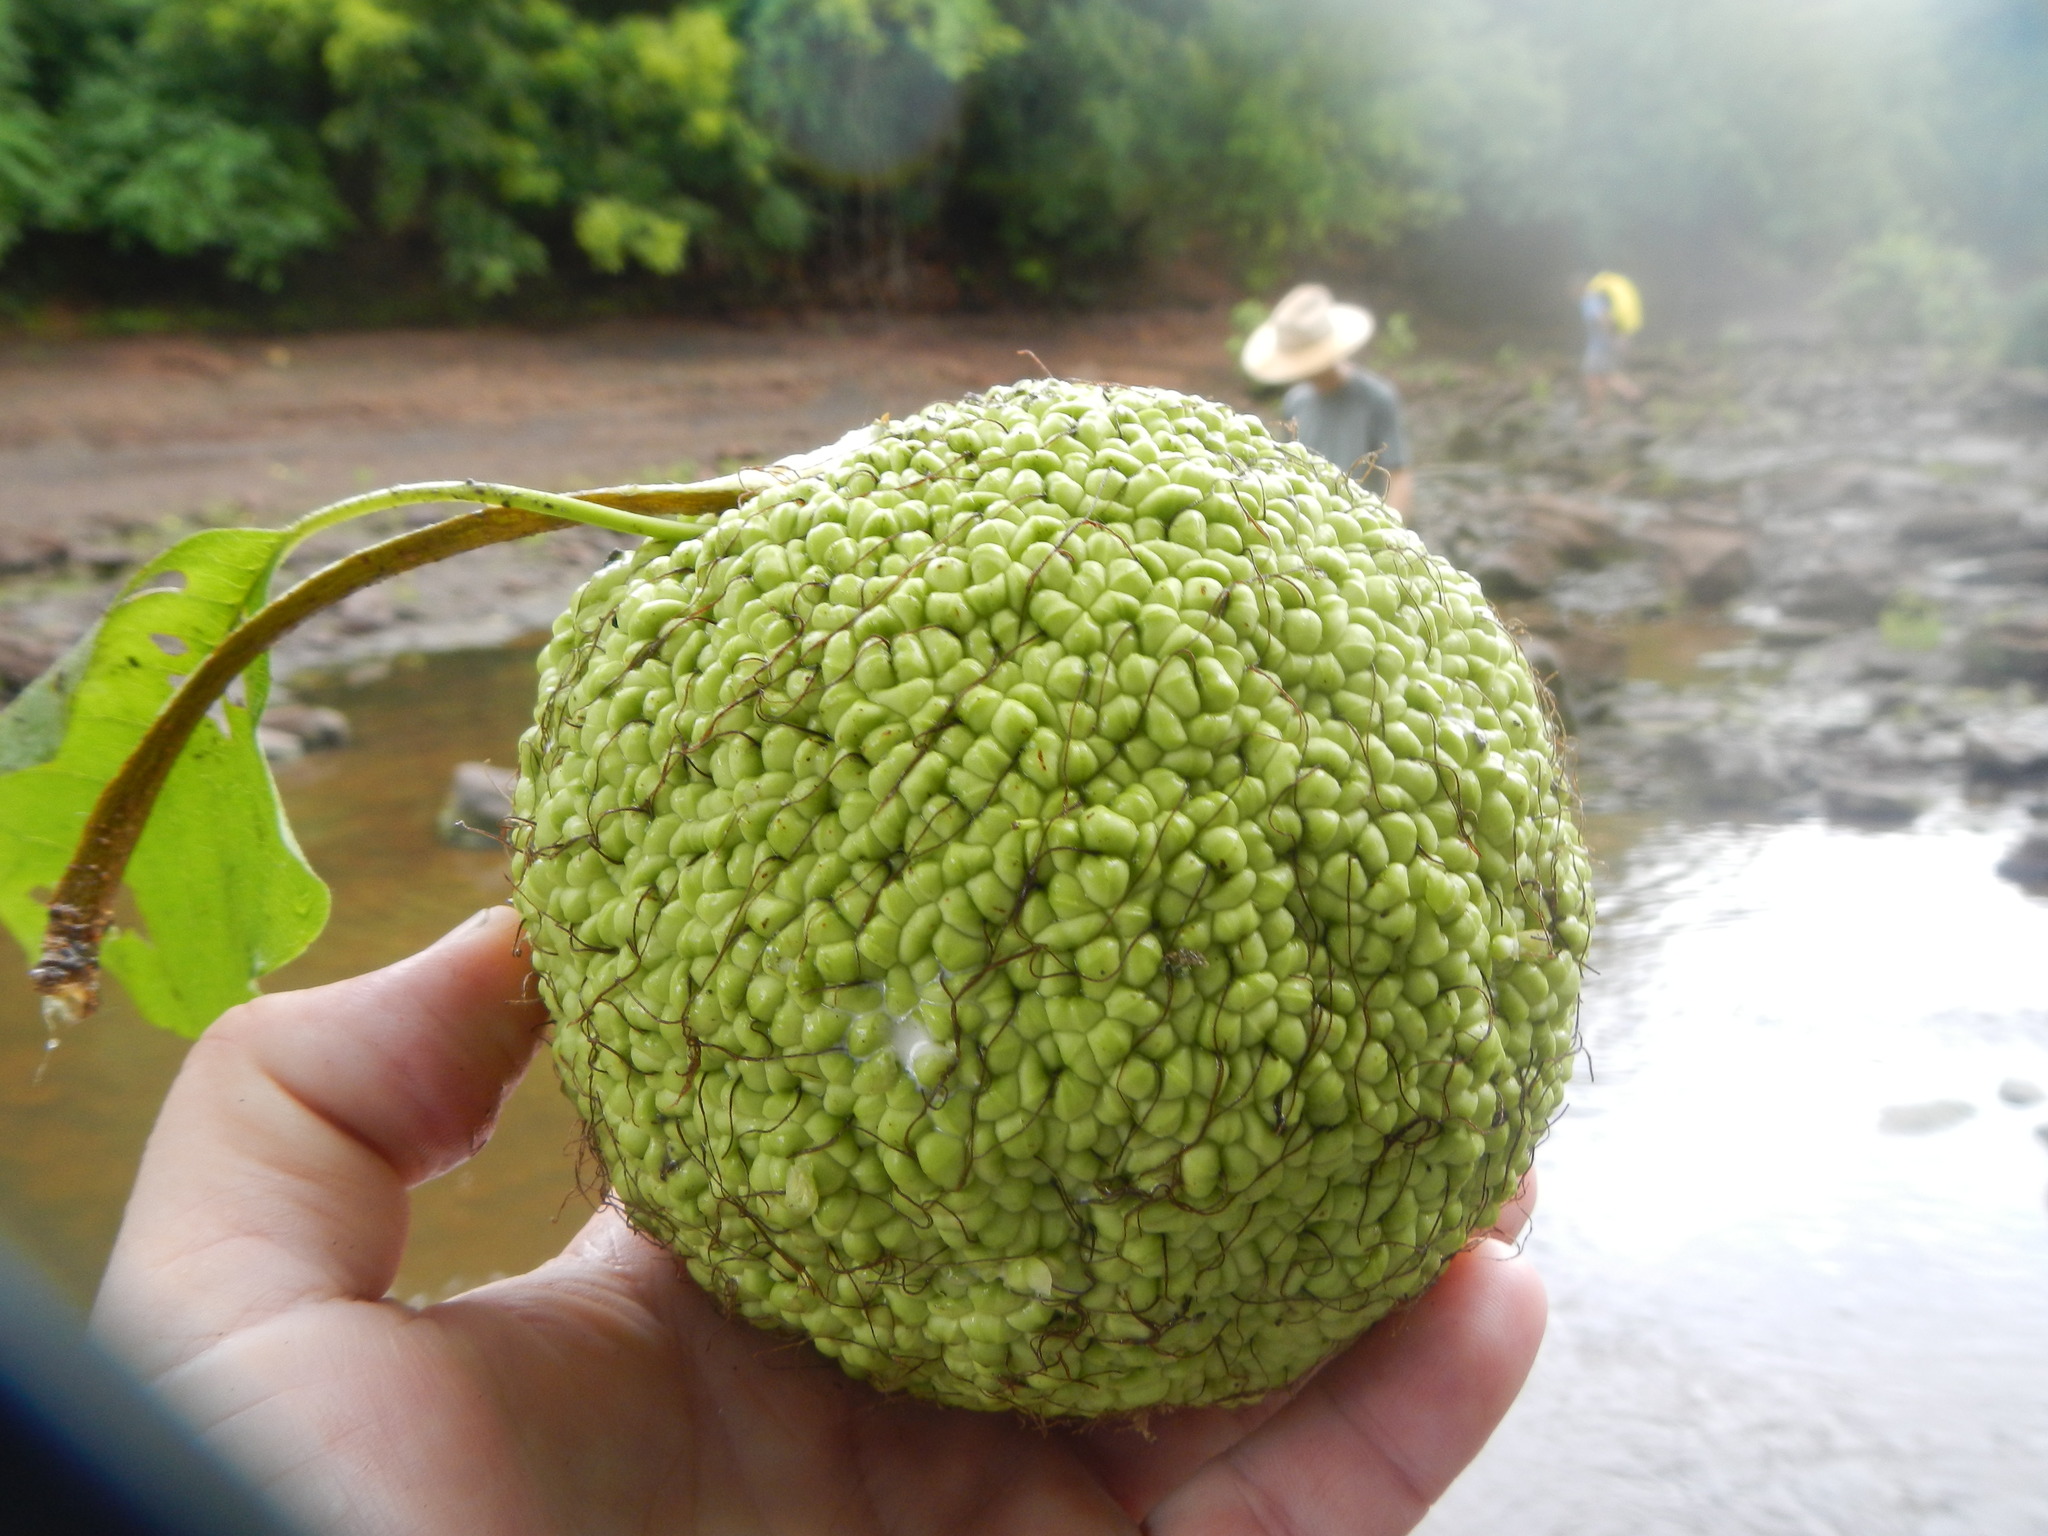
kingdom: Plantae
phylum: Tracheophyta
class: Magnoliopsida
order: Rosales
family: Moraceae
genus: Maclura
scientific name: Maclura pomifera
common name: Osage-orange
